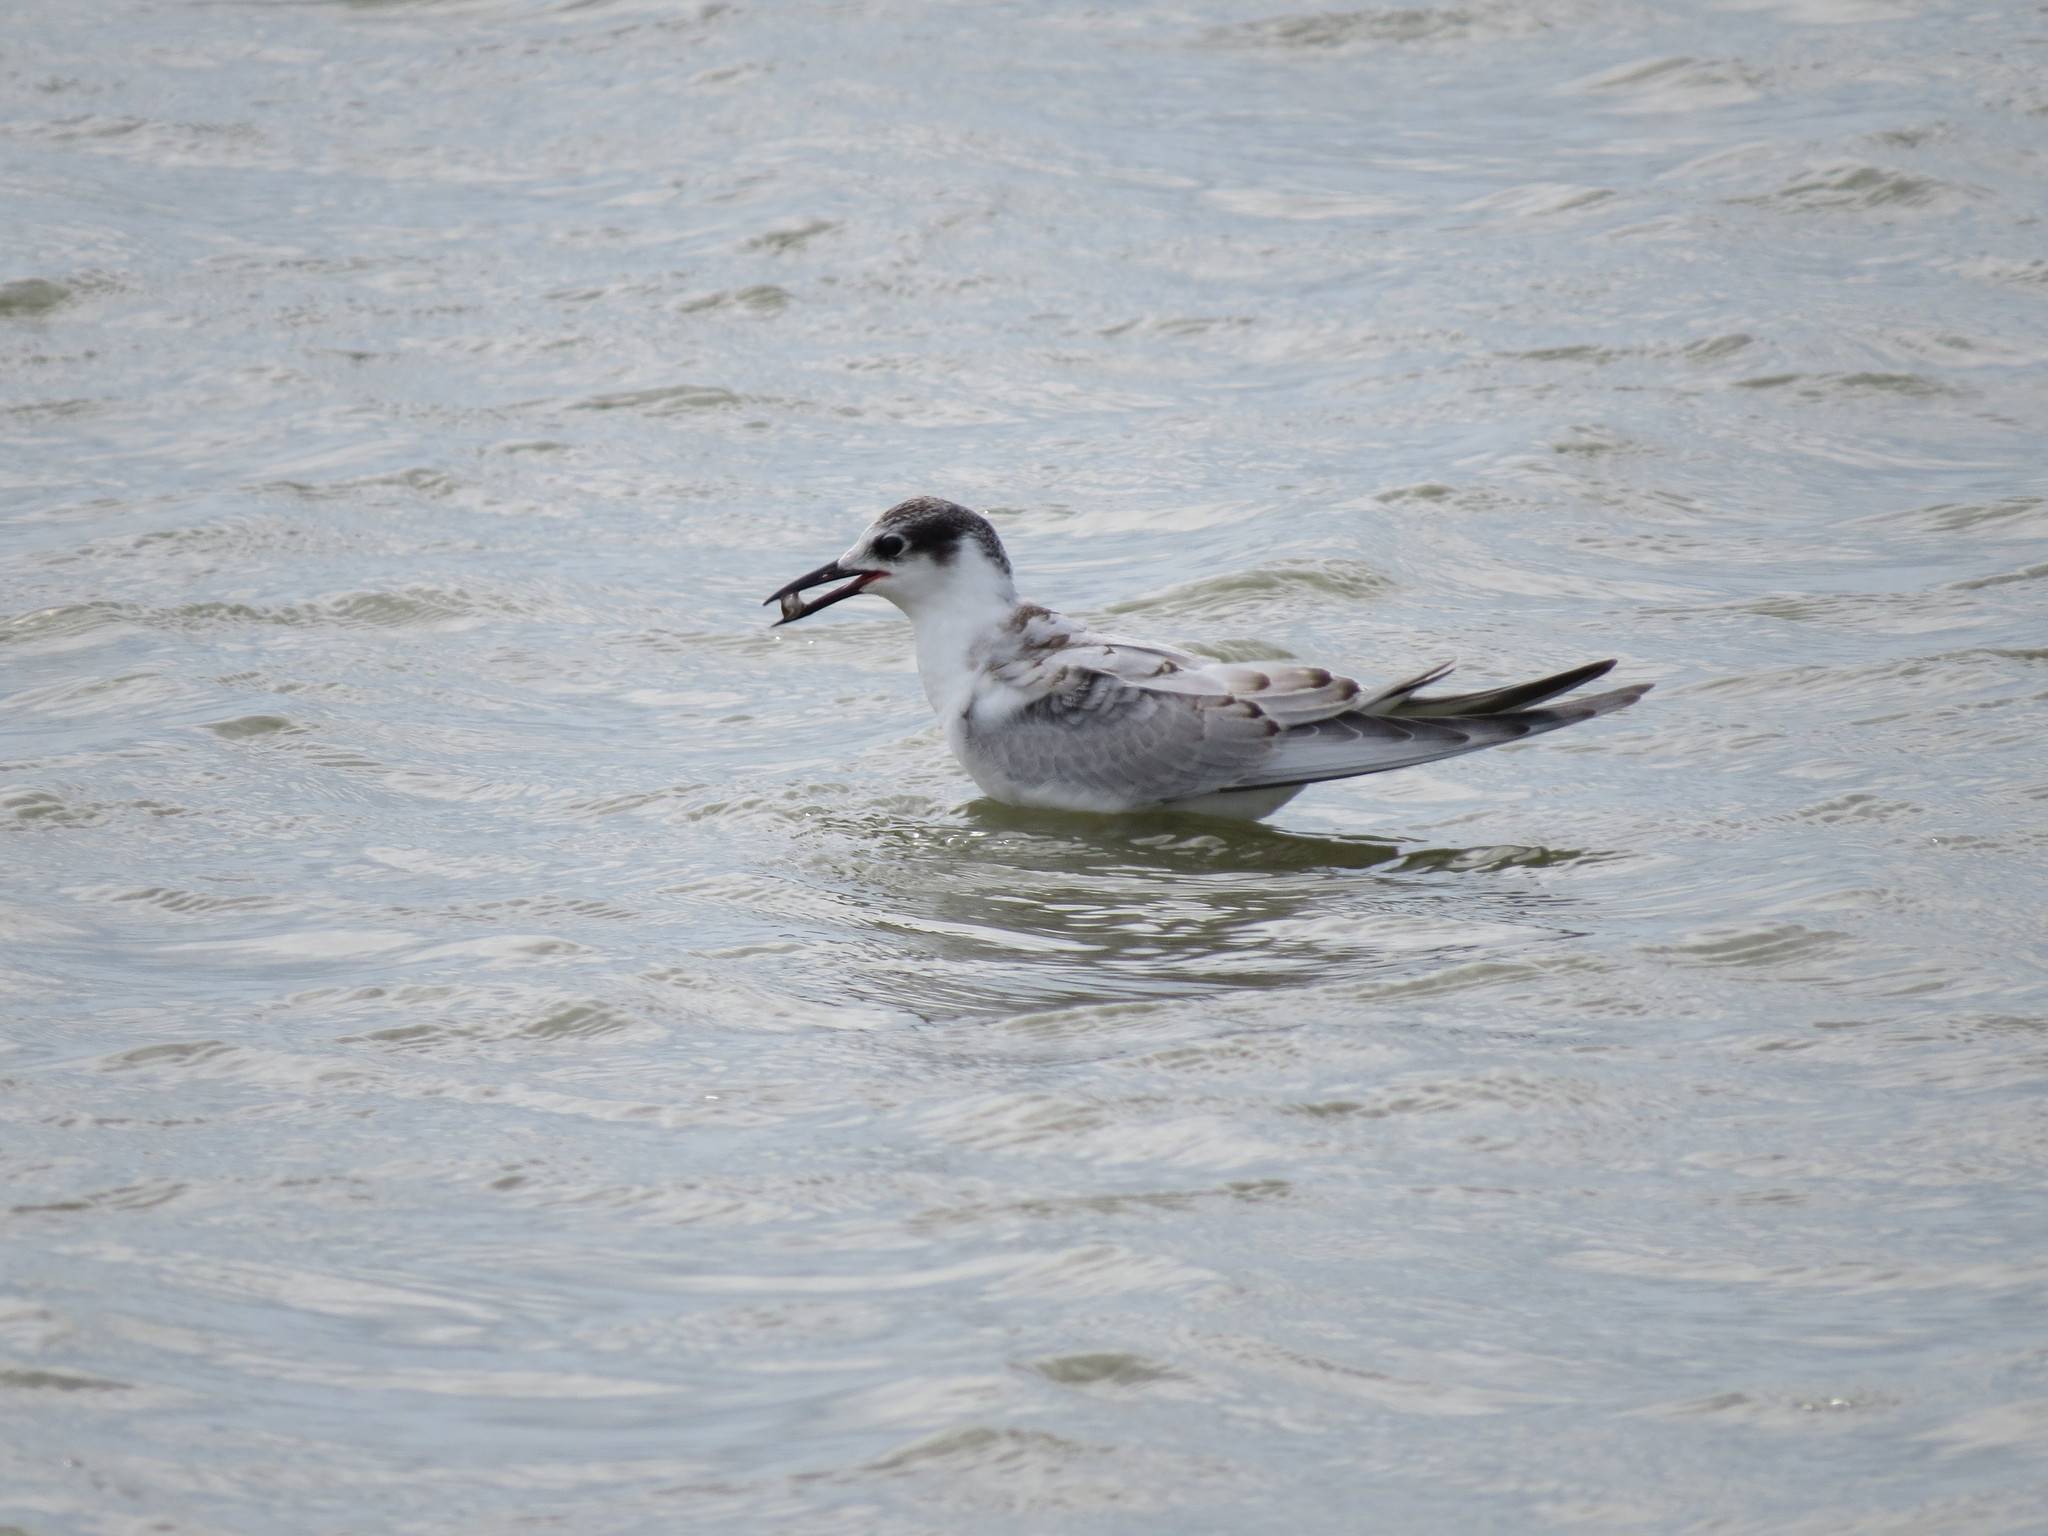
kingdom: Animalia
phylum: Chordata
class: Aves
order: Charadriiformes
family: Laridae
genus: Chlidonias
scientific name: Chlidonias leucopterus
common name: White-winged tern
